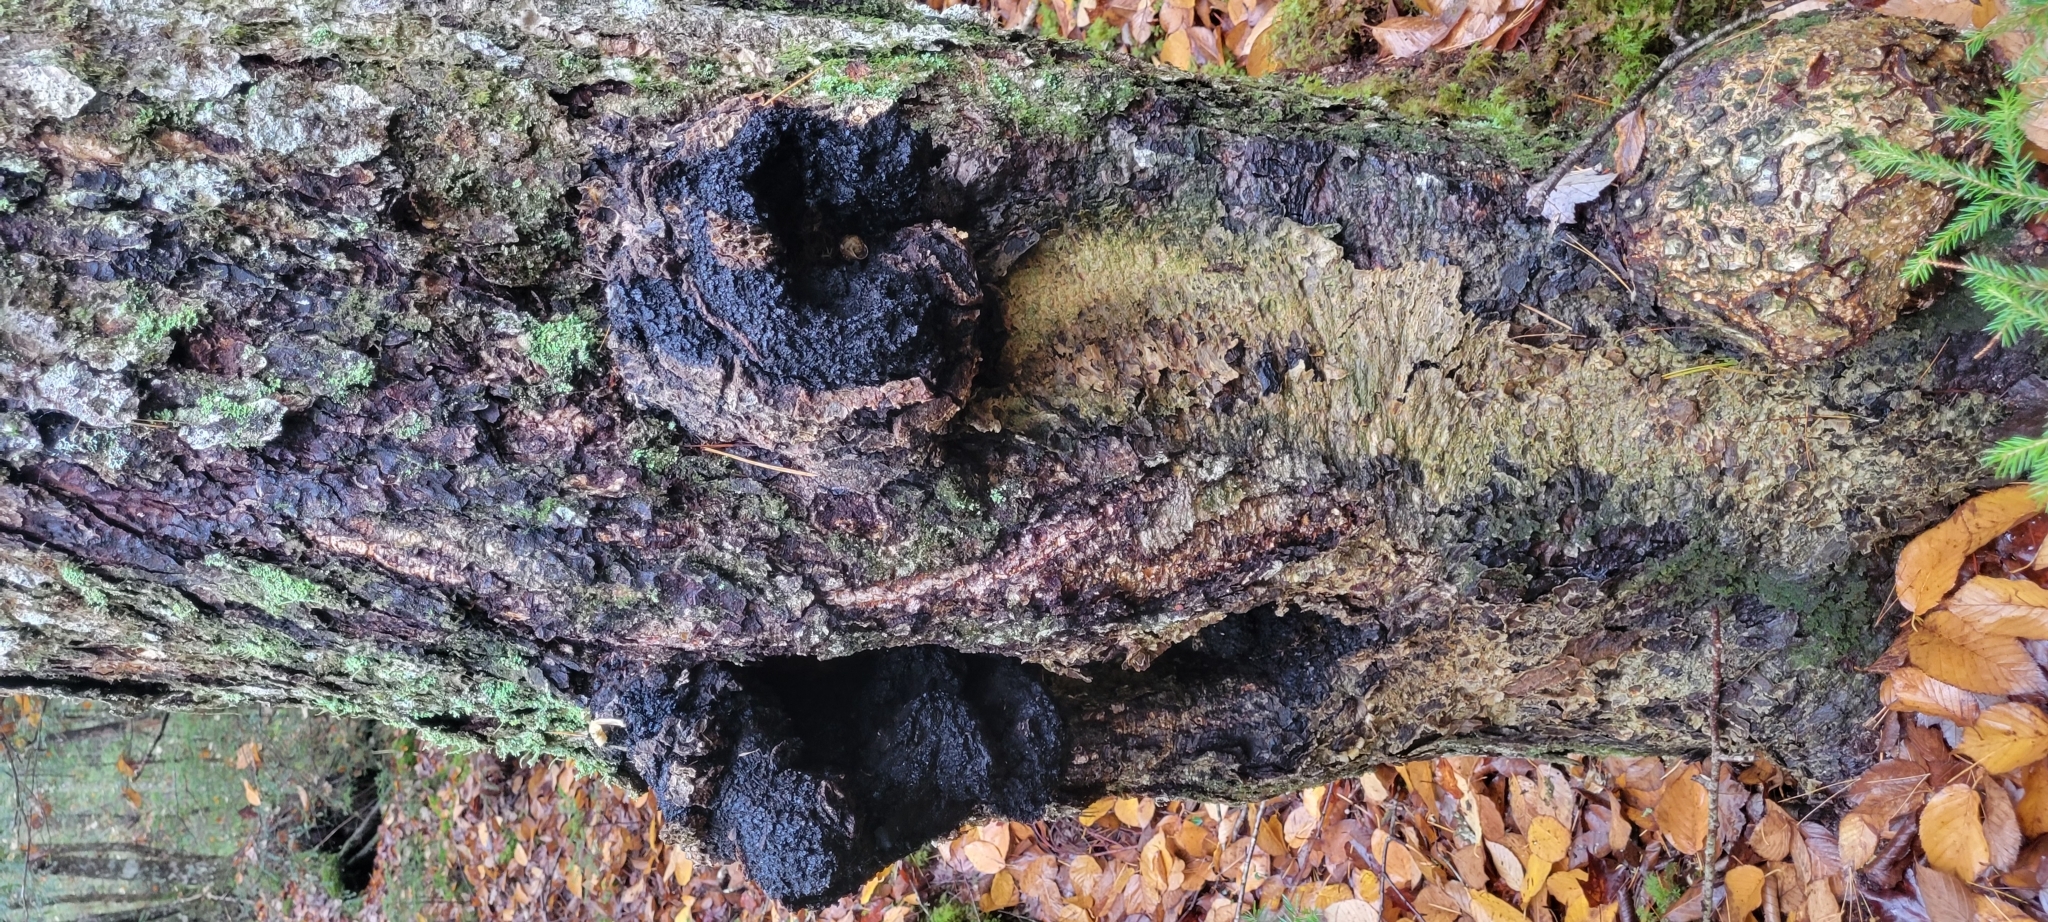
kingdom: Fungi
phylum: Basidiomycota
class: Agaricomycetes
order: Hymenochaetales
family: Hymenochaetaceae
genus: Inonotus
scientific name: Inonotus obliquus
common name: Chaga
